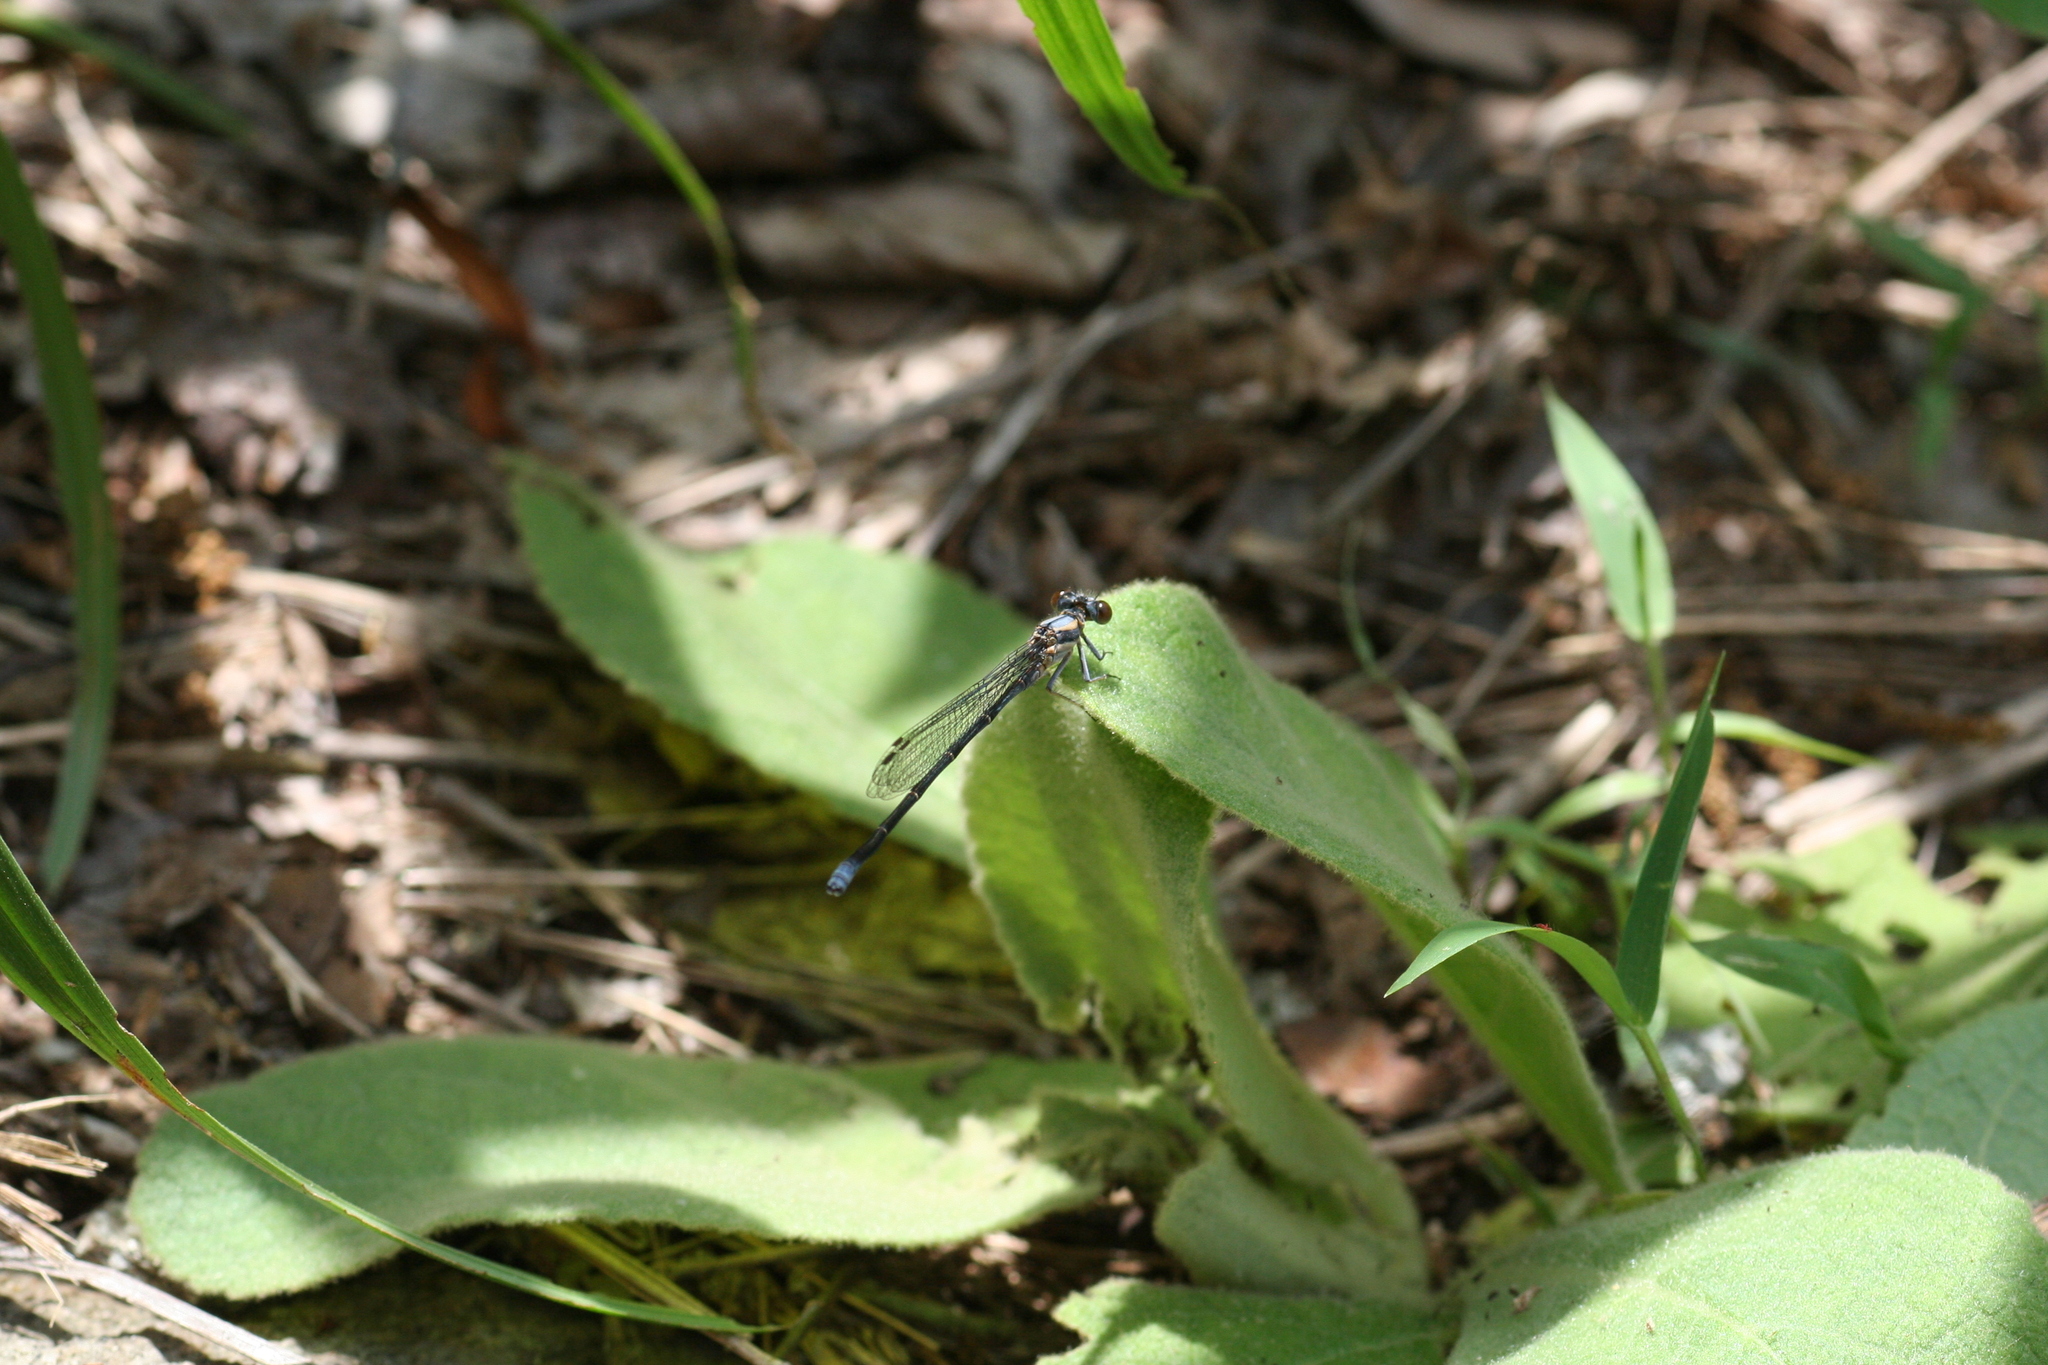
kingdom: Animalia
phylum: Arthropoda
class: Insecta
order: Odonata
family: Coenagrionidae
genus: Argia
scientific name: Argia moesta
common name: Powdered dancer
